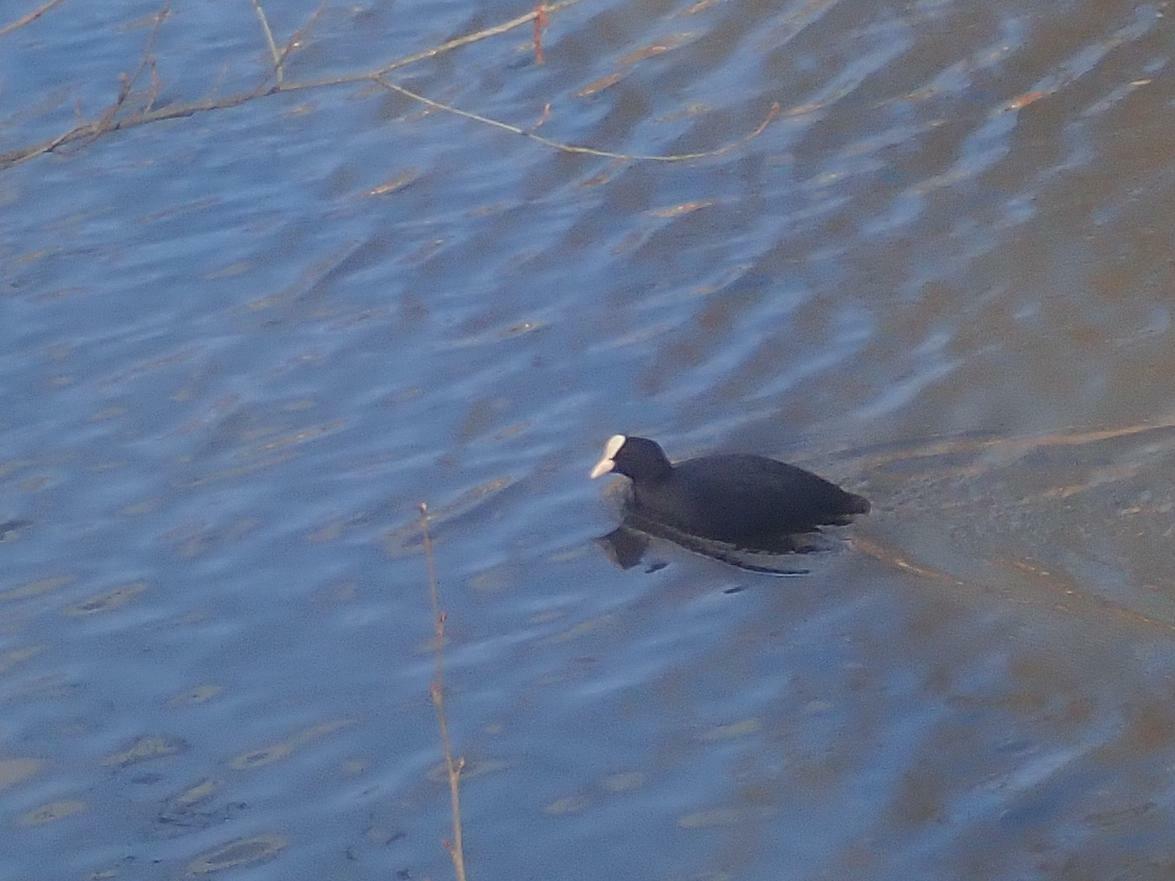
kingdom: Animalia
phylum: Chordata
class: Aves
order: Gruiformes
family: Rallidae
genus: Fulica
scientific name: Fulica atra
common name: Eurasian coot
